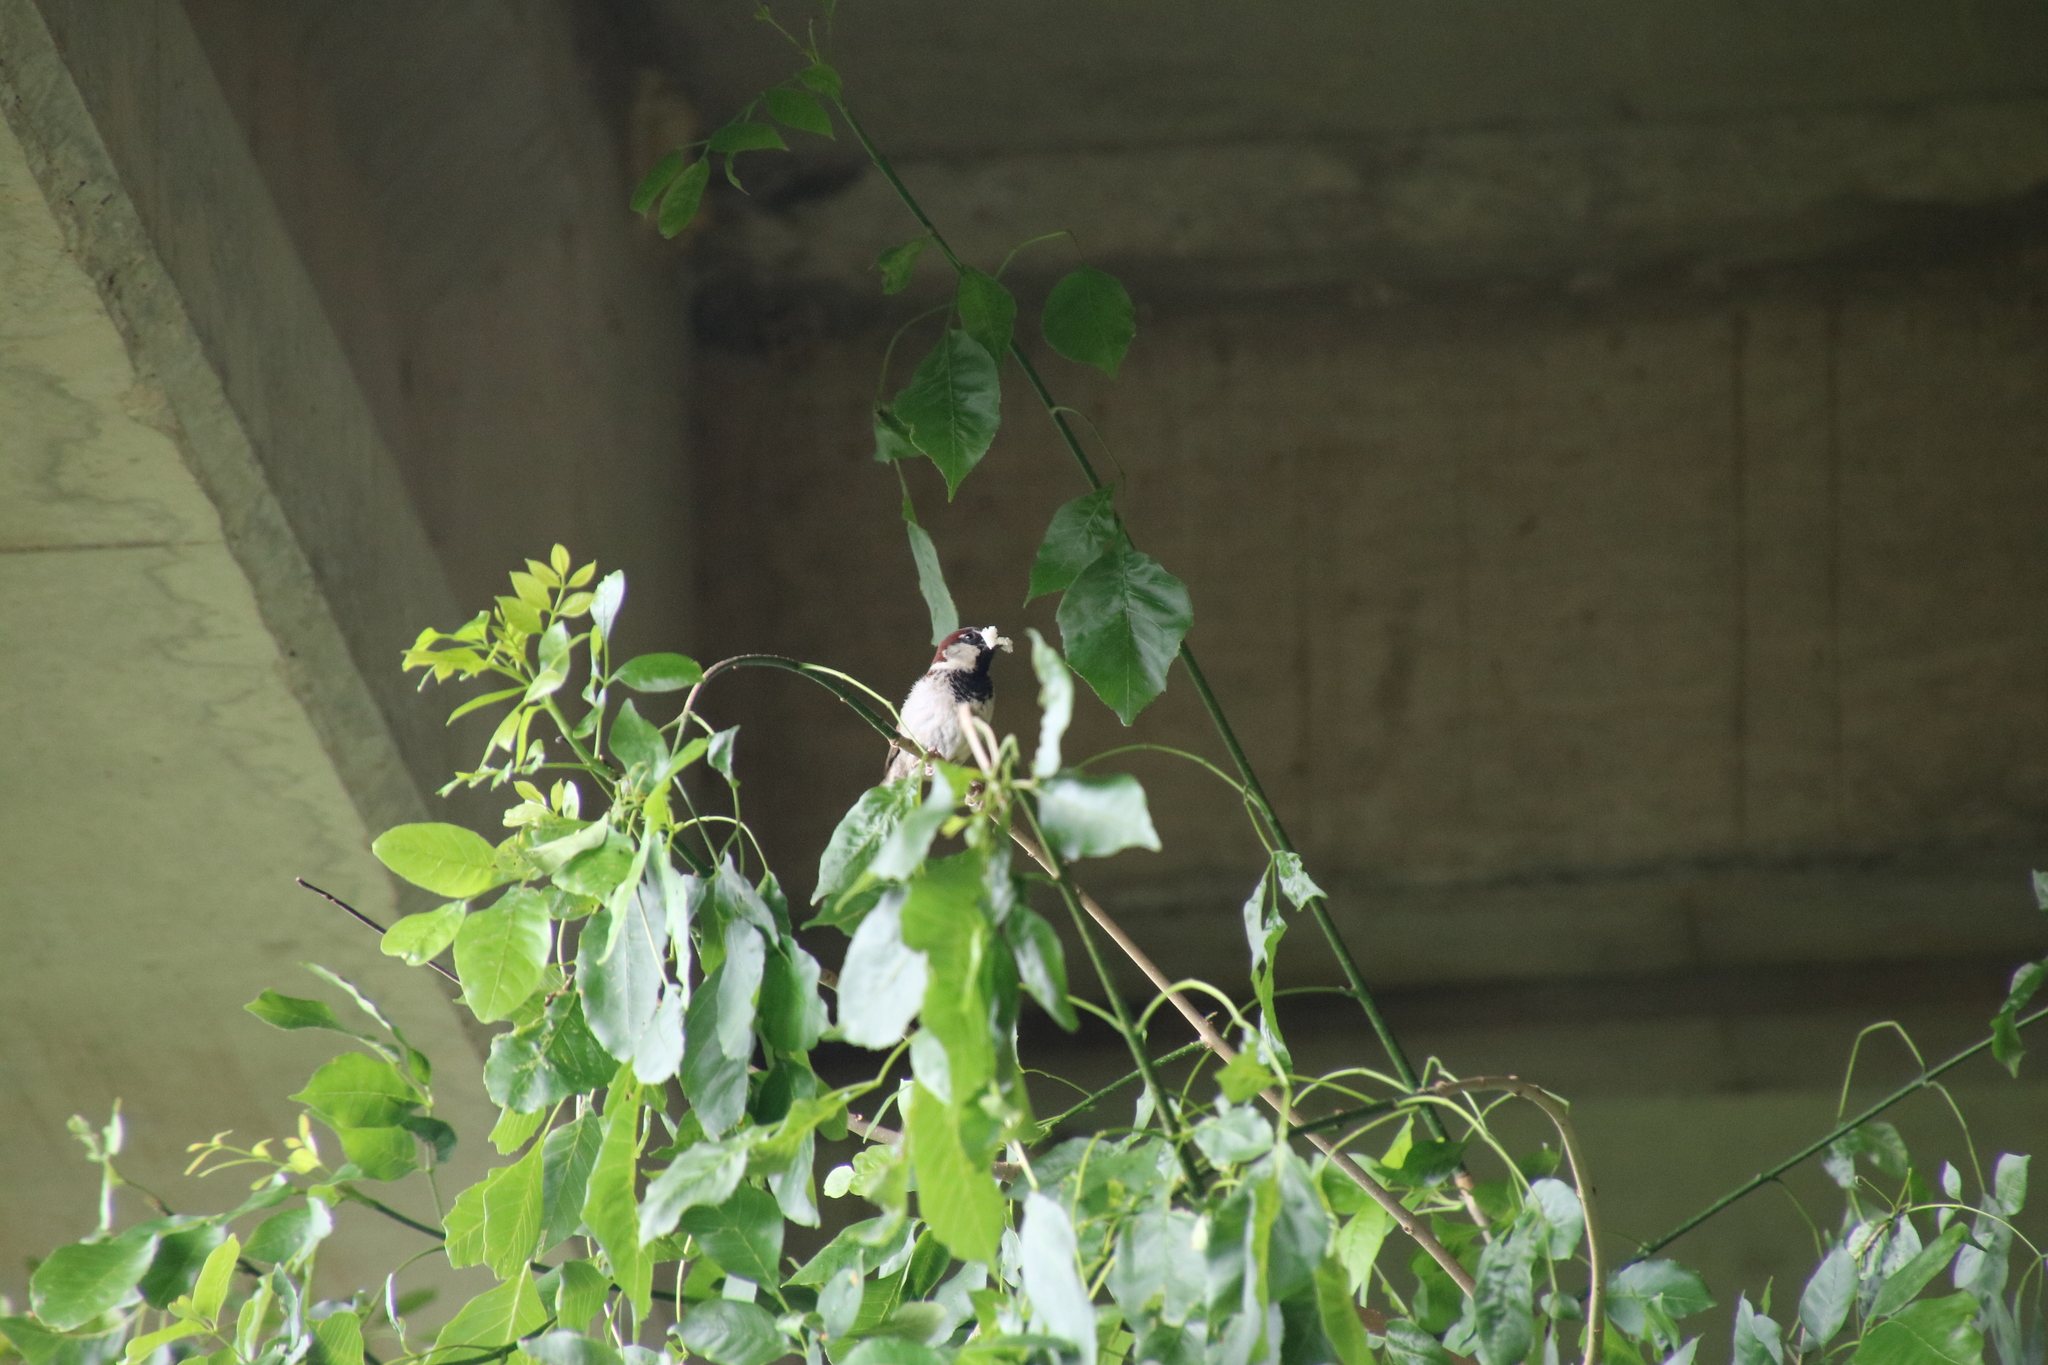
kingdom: Animalia
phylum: Chordata
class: Aves
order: Passeriformes
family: Passeridae
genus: Passer
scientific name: Passer domesticus
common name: House sparrow
